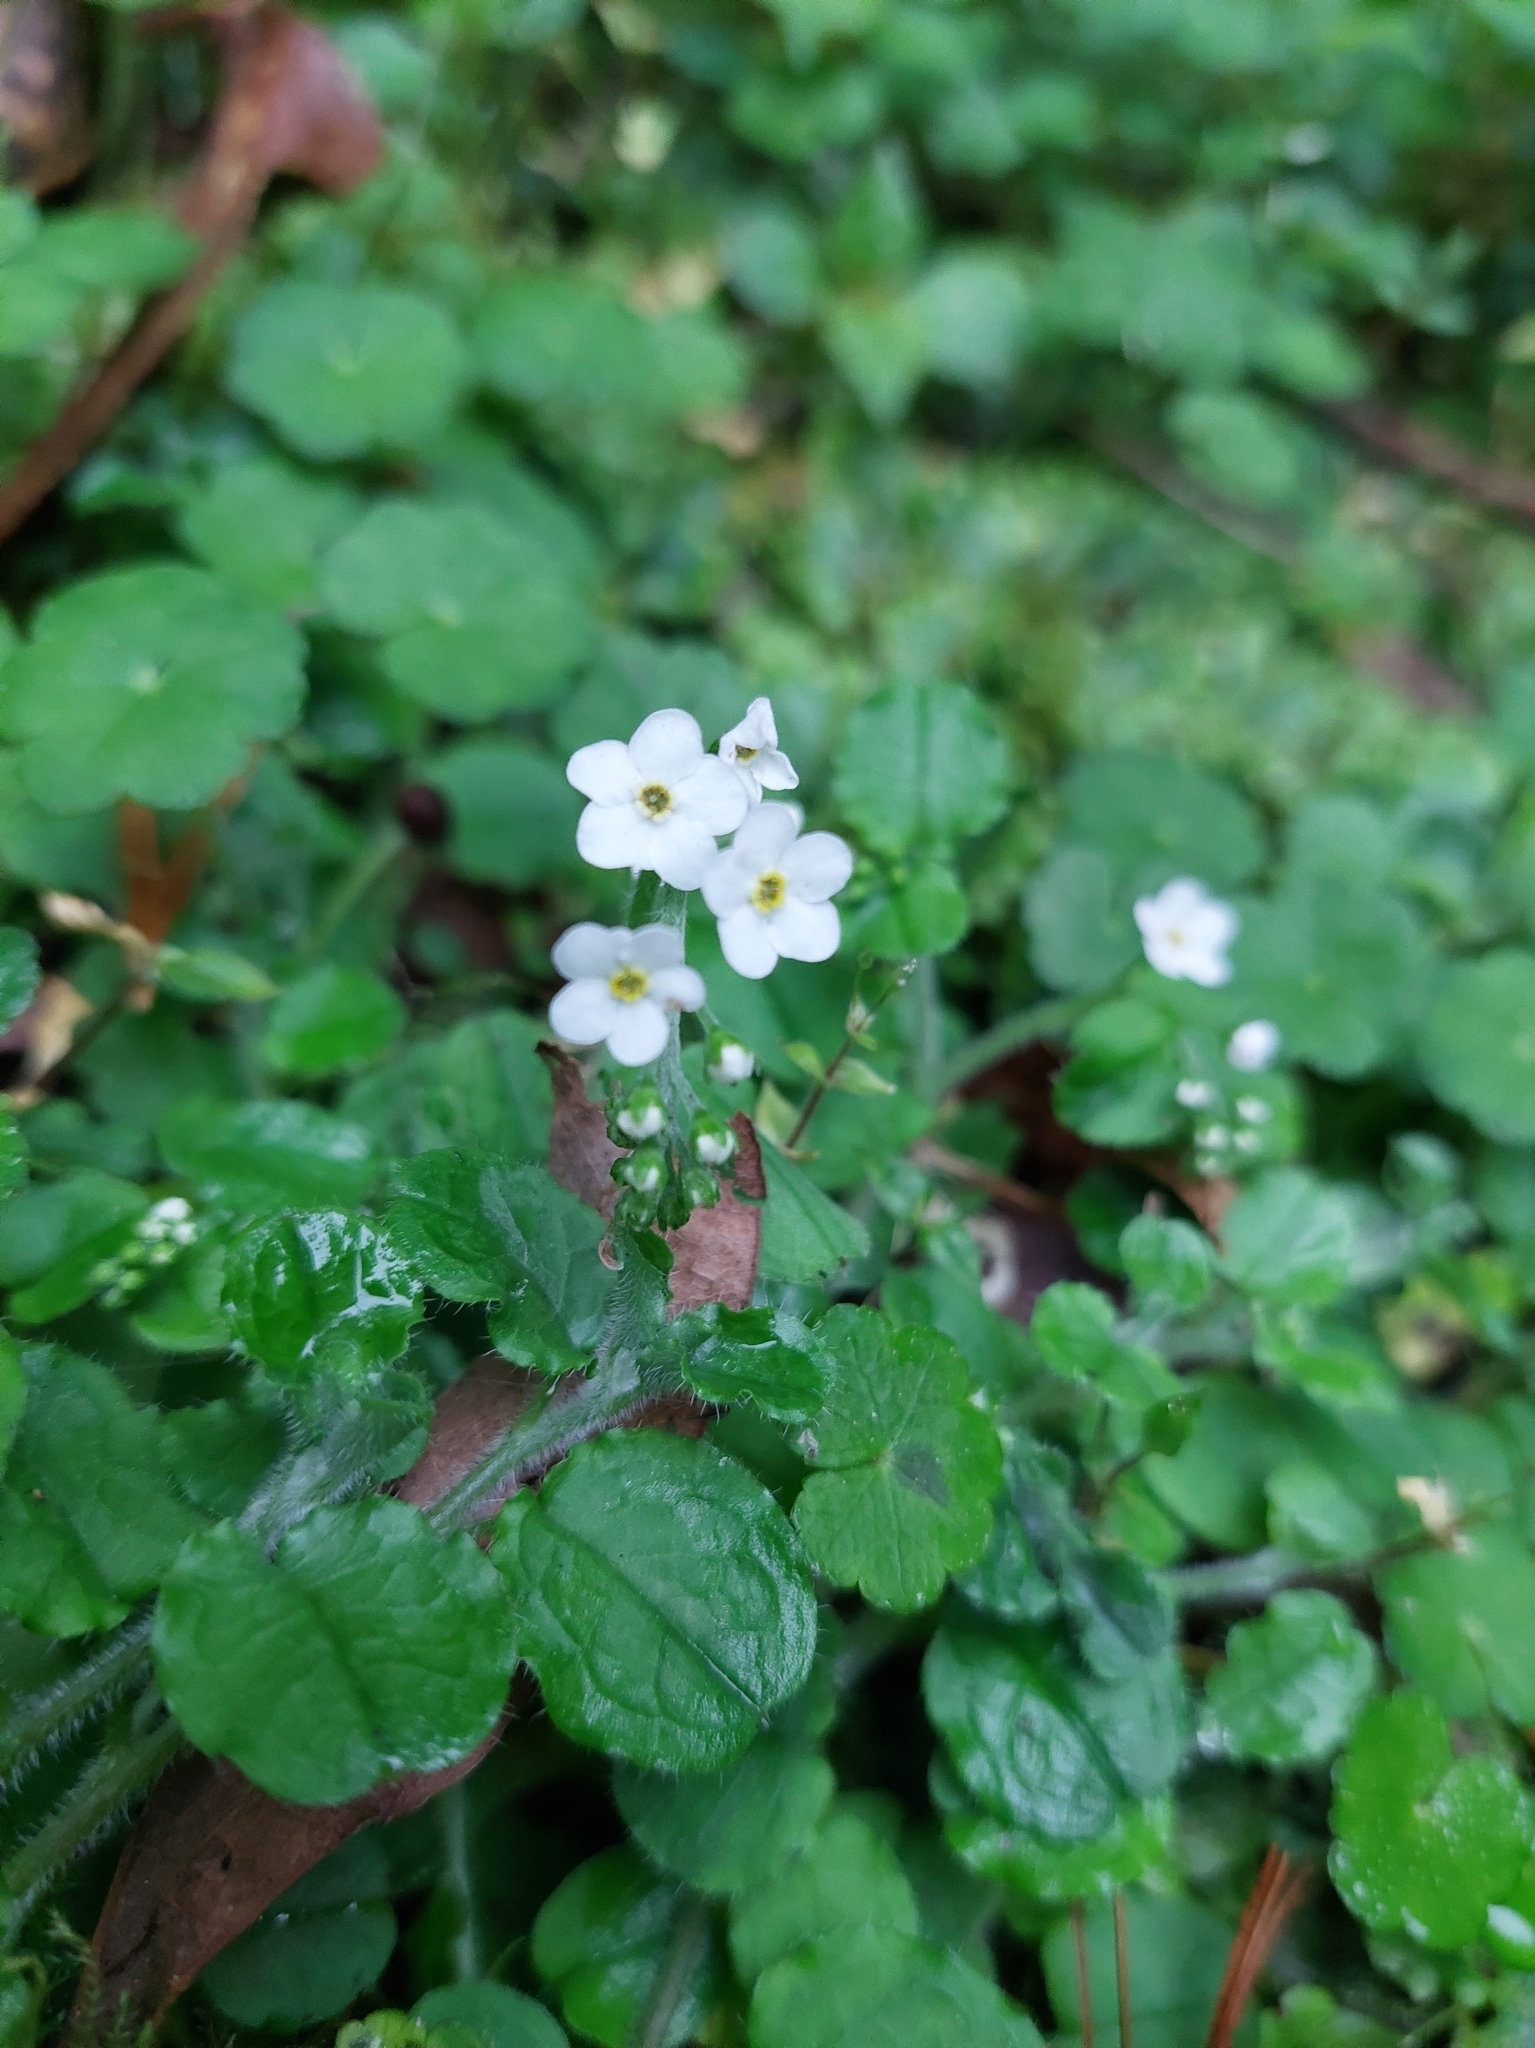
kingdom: Plantae
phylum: Tracheophyta
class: Magnoliopsida
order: Boraginales
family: Boraginaceae
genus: Trigonotis
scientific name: Trigonotis formosana
